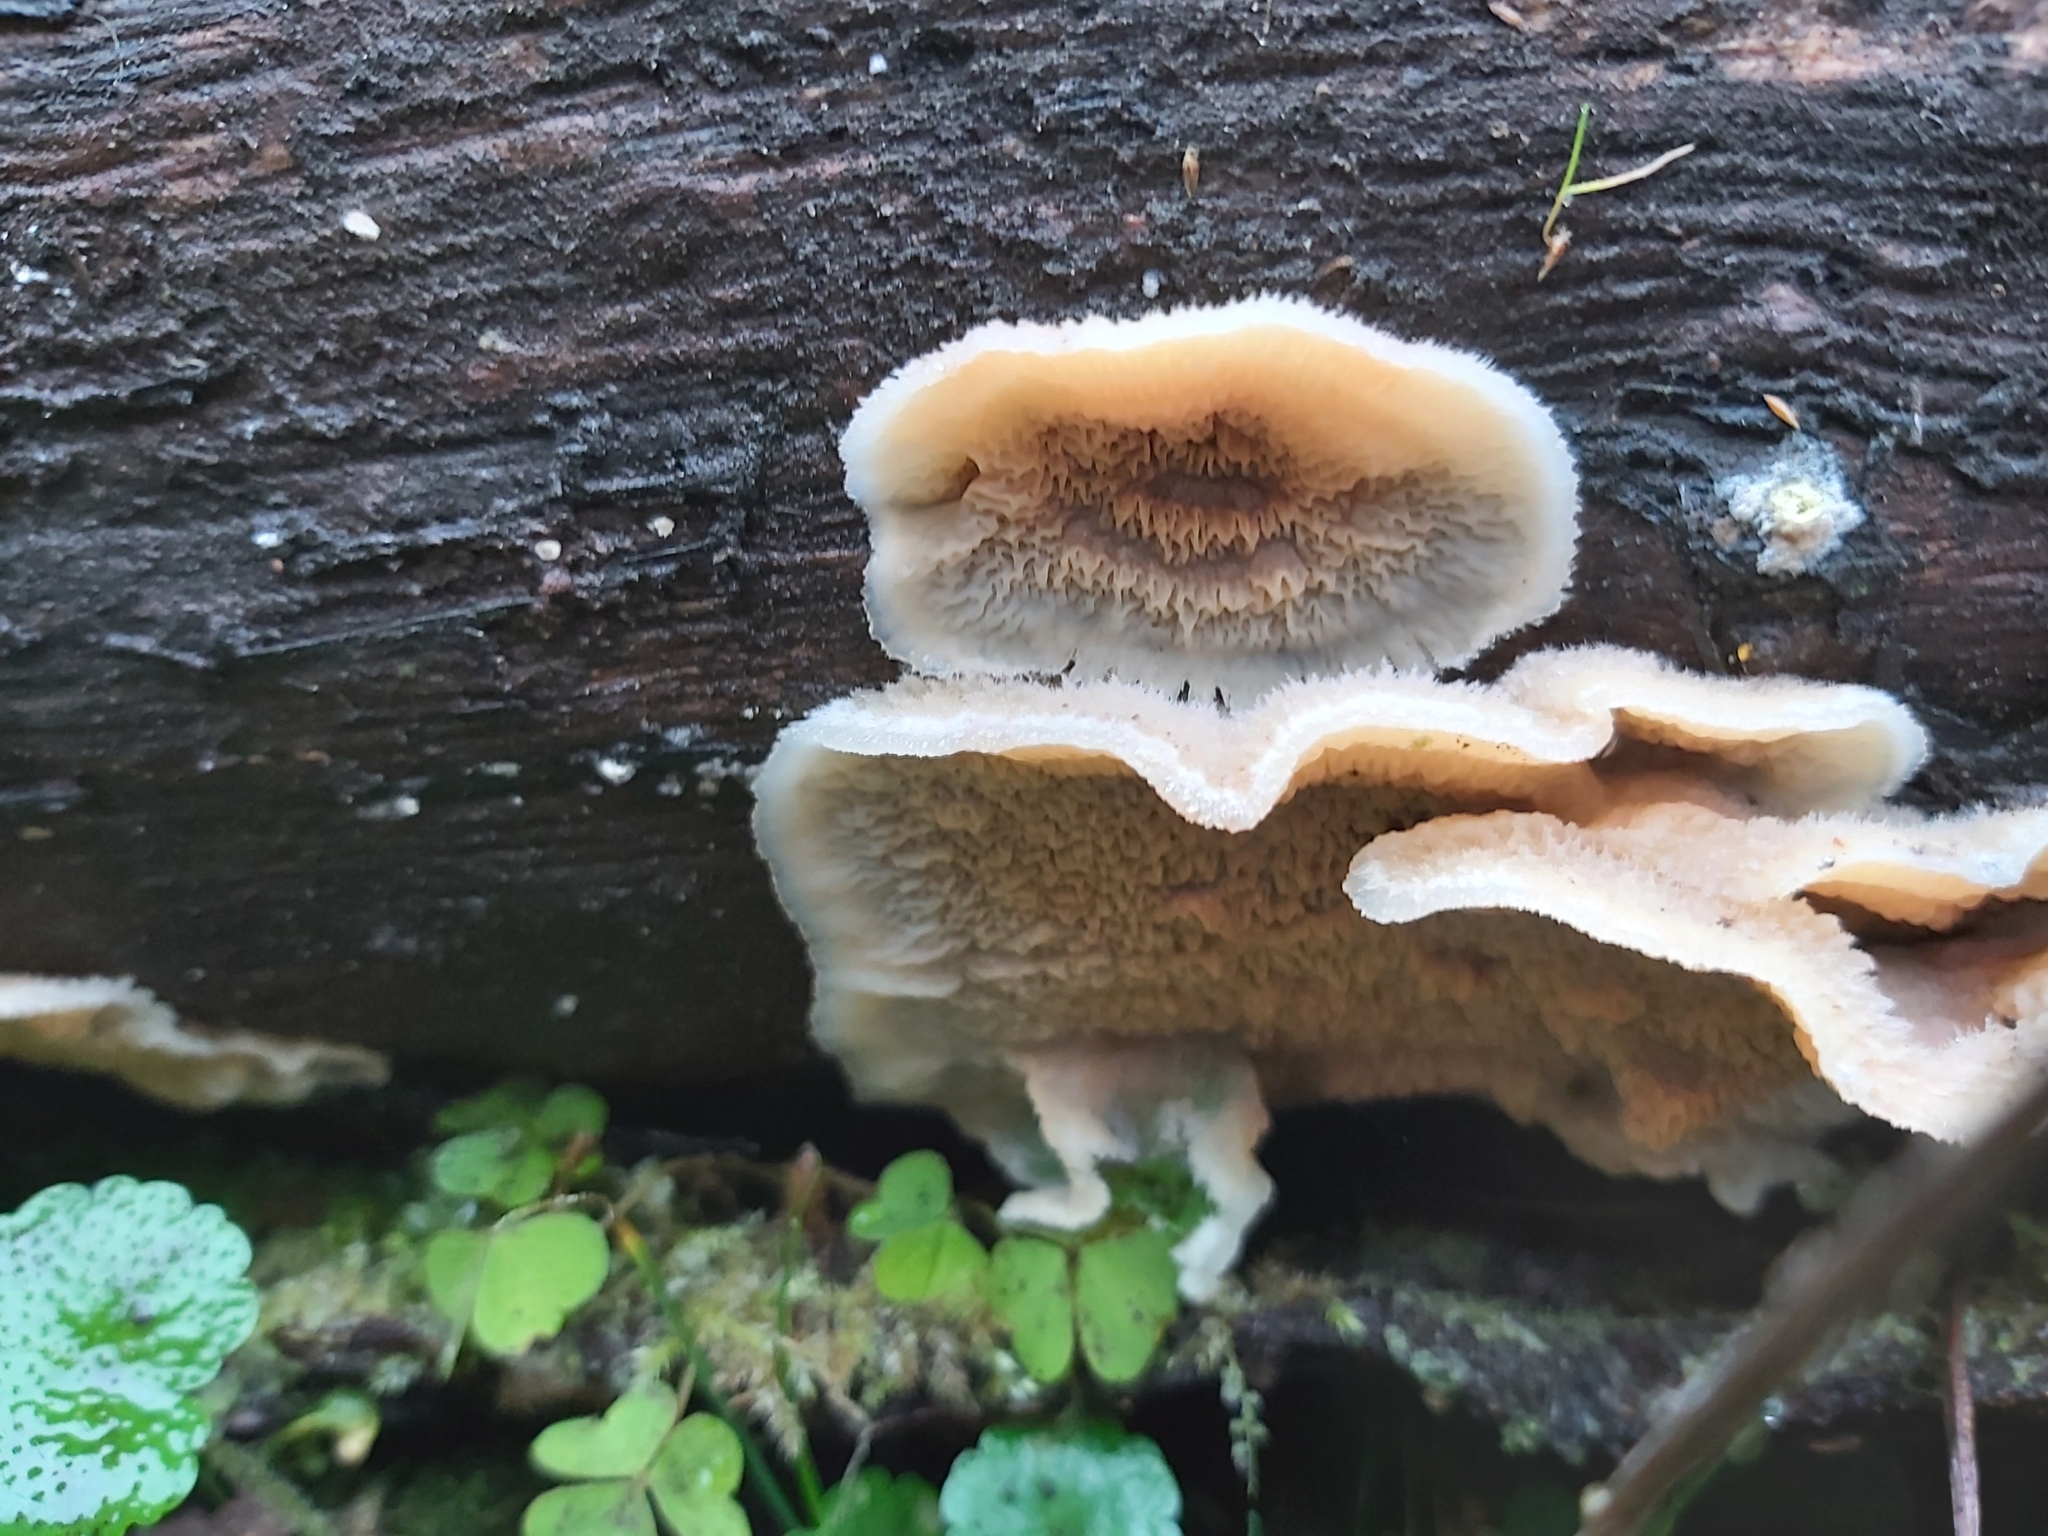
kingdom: Fungi
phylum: Basidiomycota
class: Agaricomycetes
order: Polyporales
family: Meruliaceae
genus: Phlebia
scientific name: Phlebia tremellosa
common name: Jelly rot
